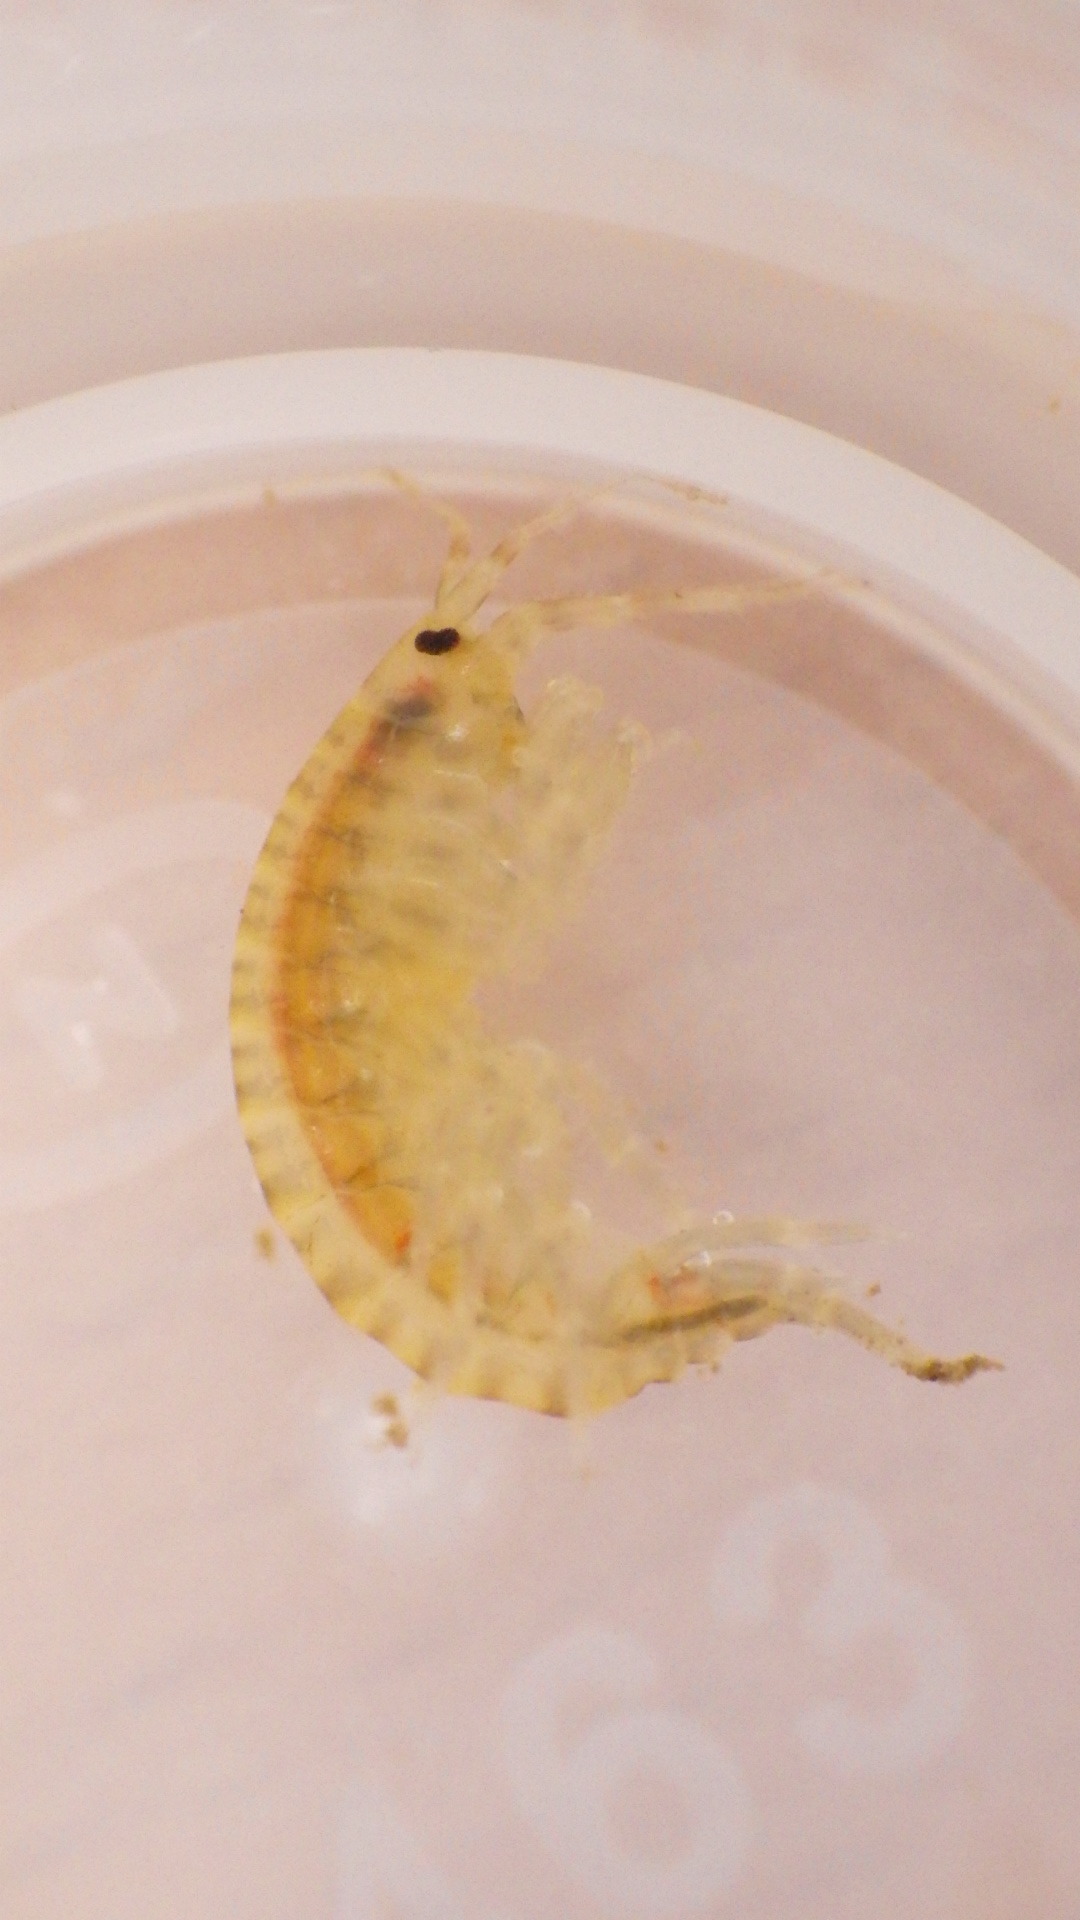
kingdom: Animalia
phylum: Arthropoda
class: Malacostraca
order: Amphipoda
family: Gammaridae
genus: Gammarus
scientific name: Gammarus fasciatus
